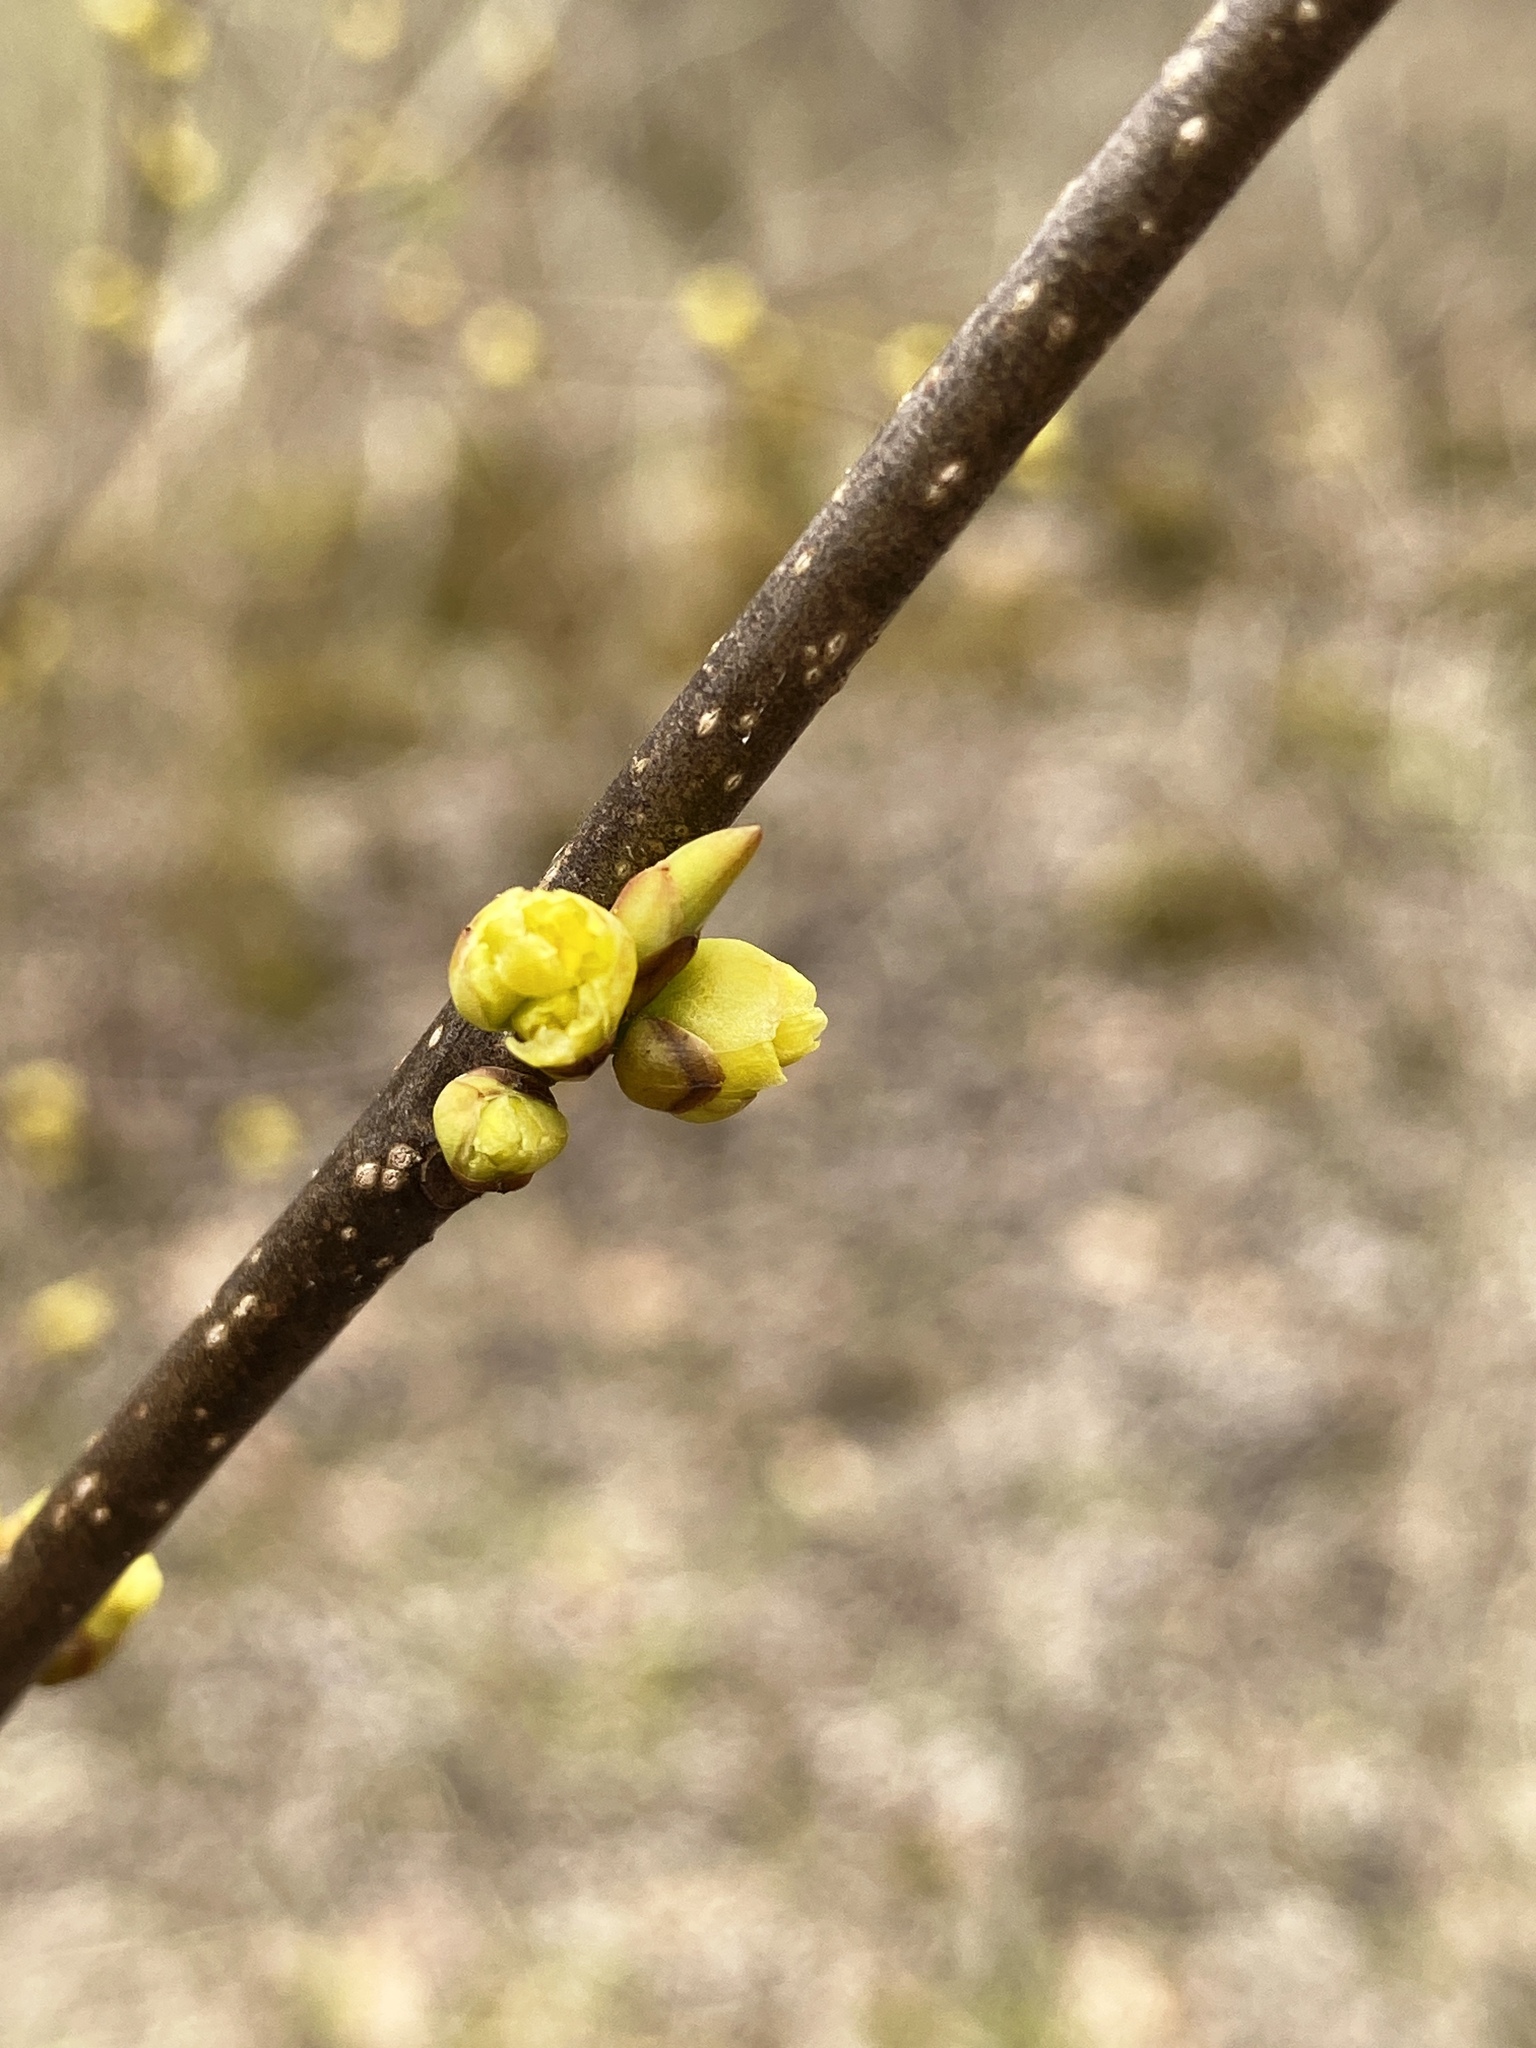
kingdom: Plantae
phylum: Tracheophyta
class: Magnoliopsida
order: Laurales
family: Lauraceae
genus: Lindera
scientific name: Lindera benzoin
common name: Spicebush
